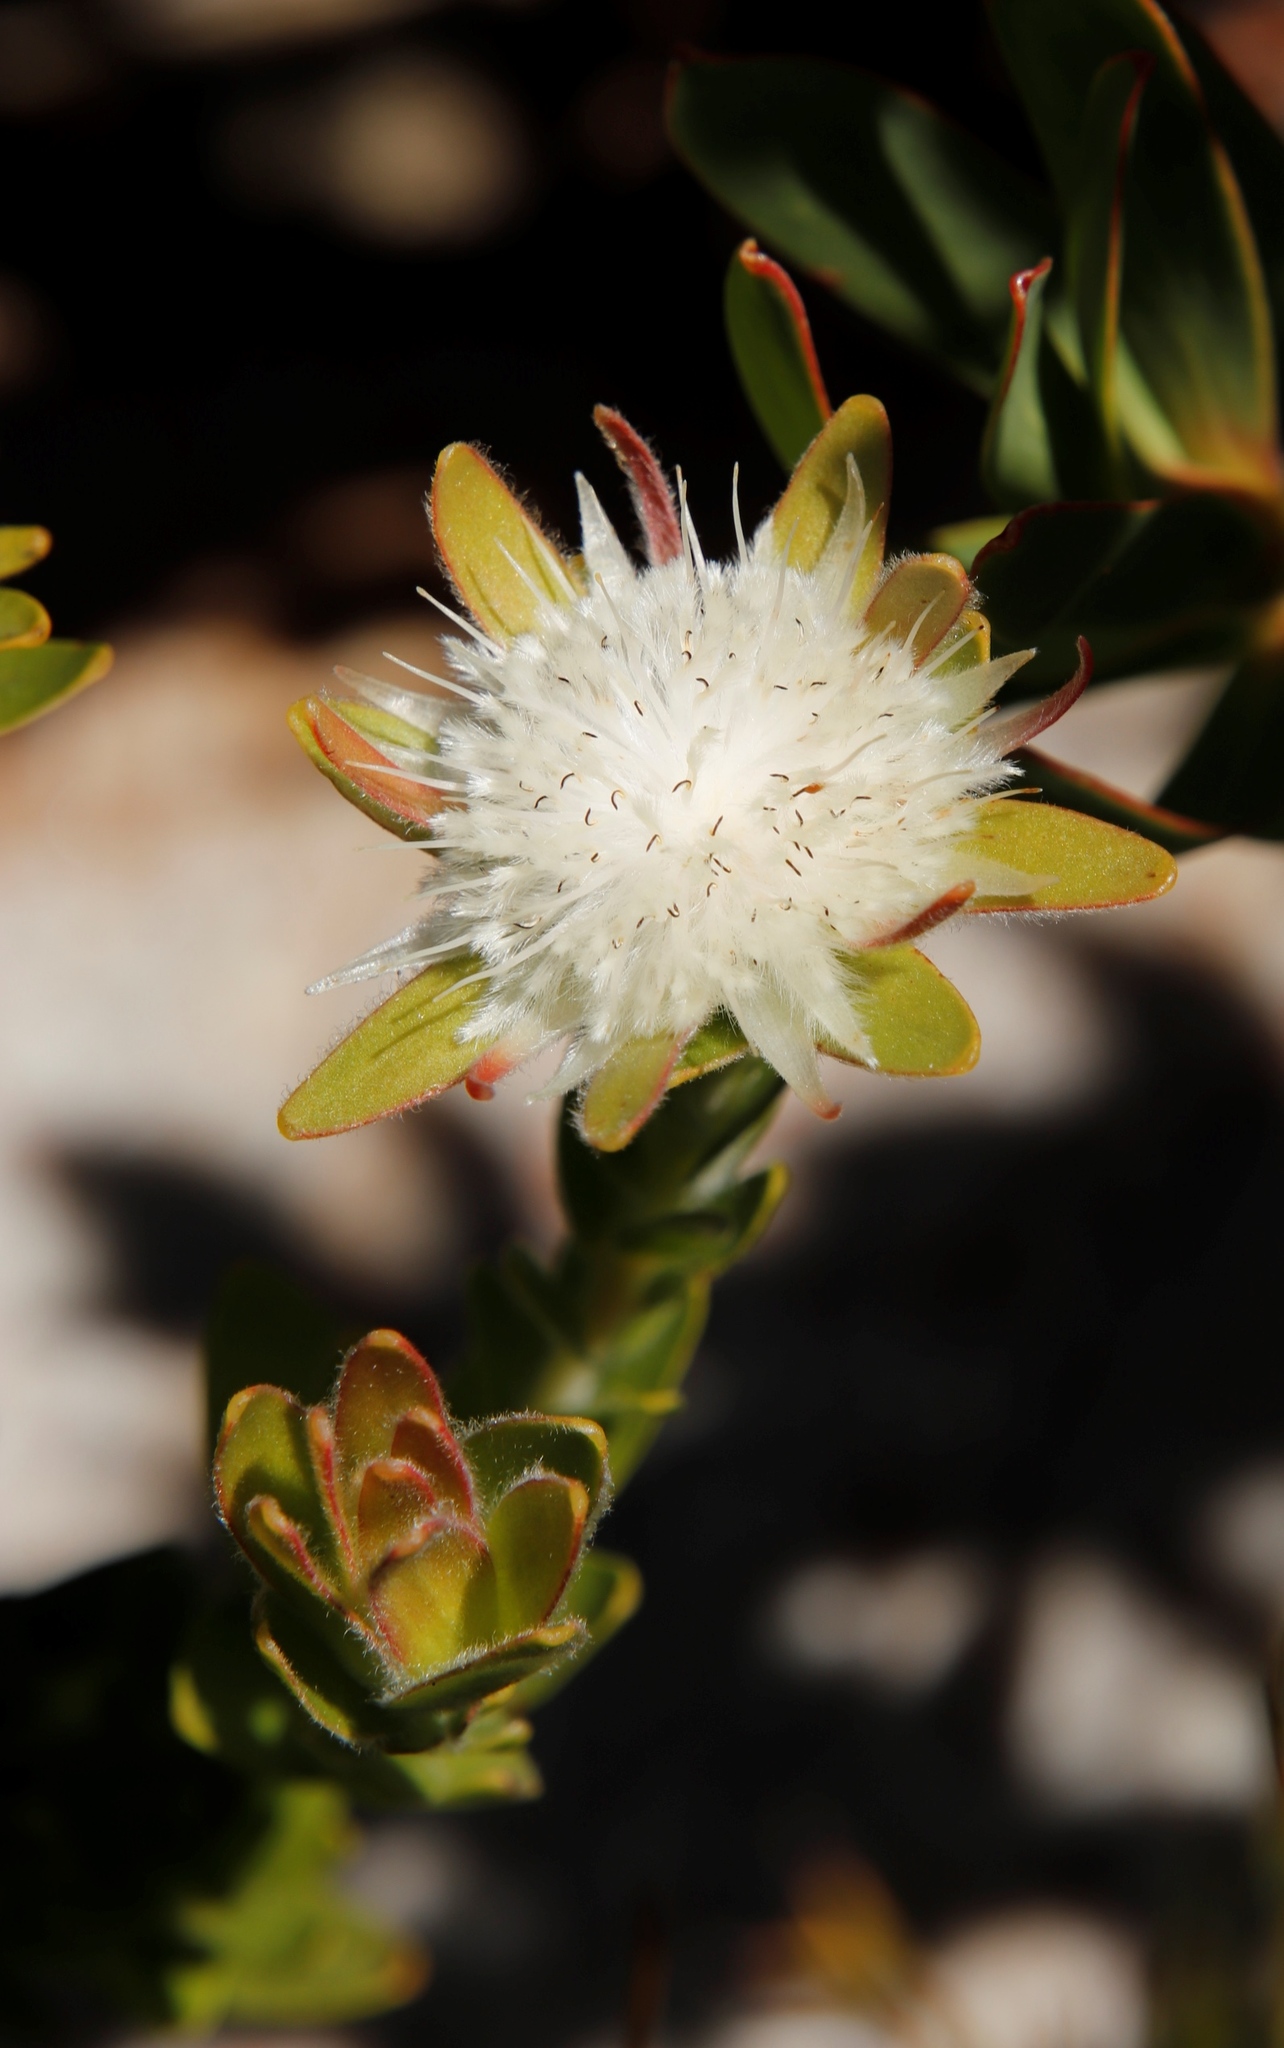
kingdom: Plantae
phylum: Tracheophyta
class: Magnoliopsida
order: Proteales
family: Proteaceae
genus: Diastella
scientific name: Diastella thymelaeoides
